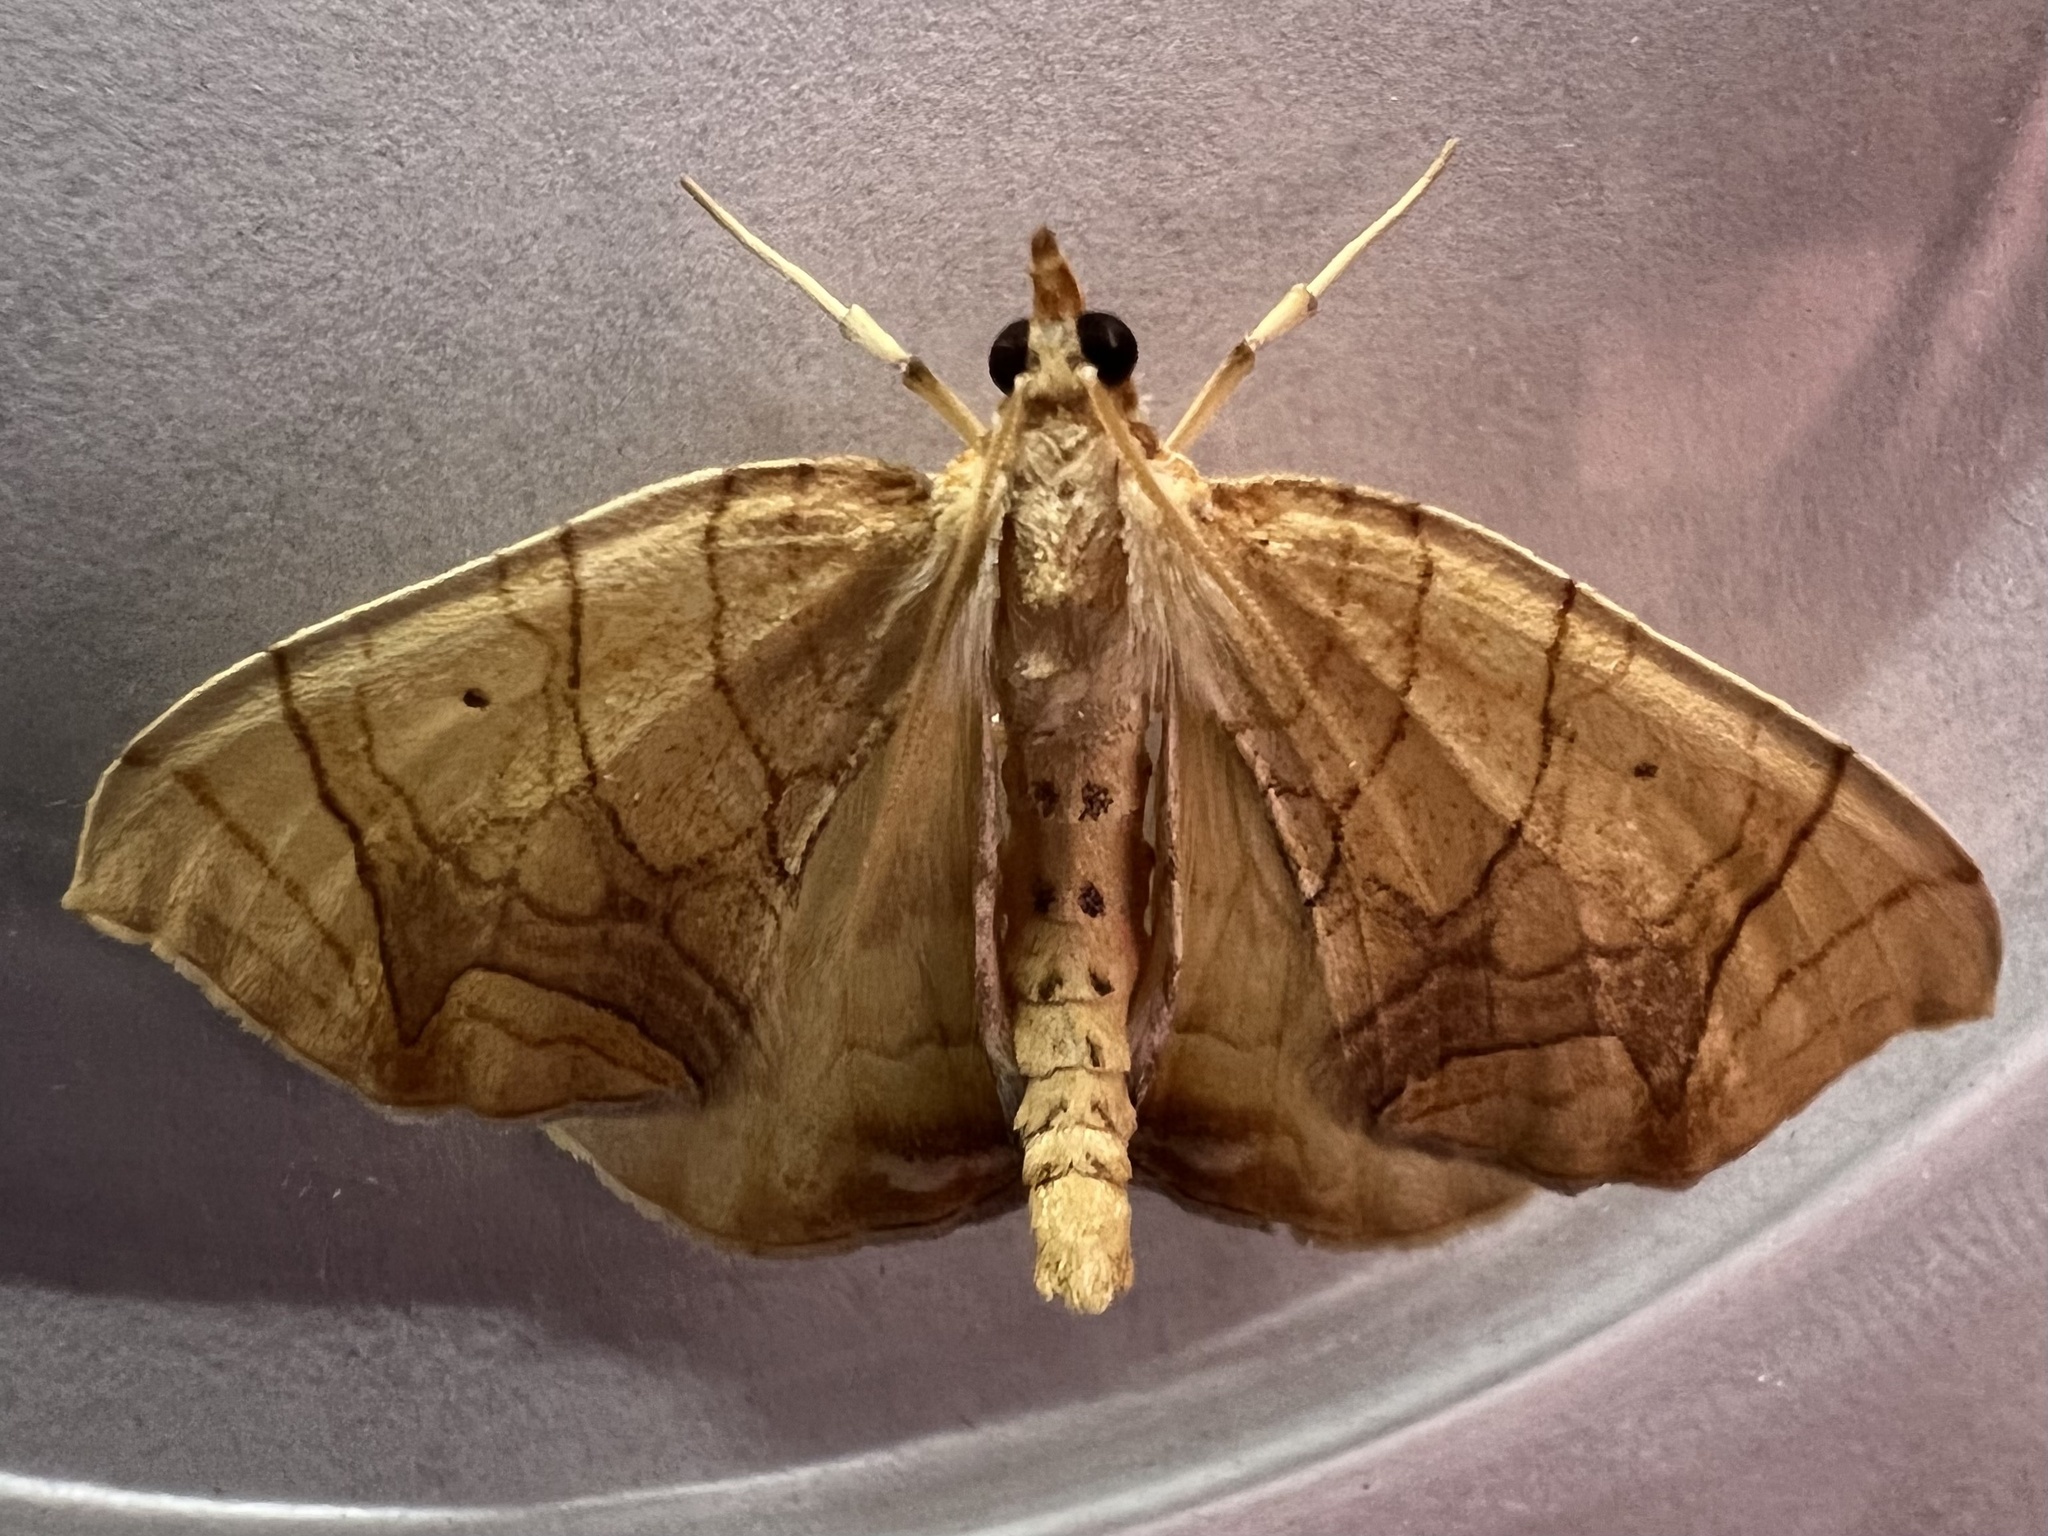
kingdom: Animalia
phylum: Arthropoda
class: Insecta
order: Lepidoptera
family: Geometridae
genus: Eulithis
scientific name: Eulithis
